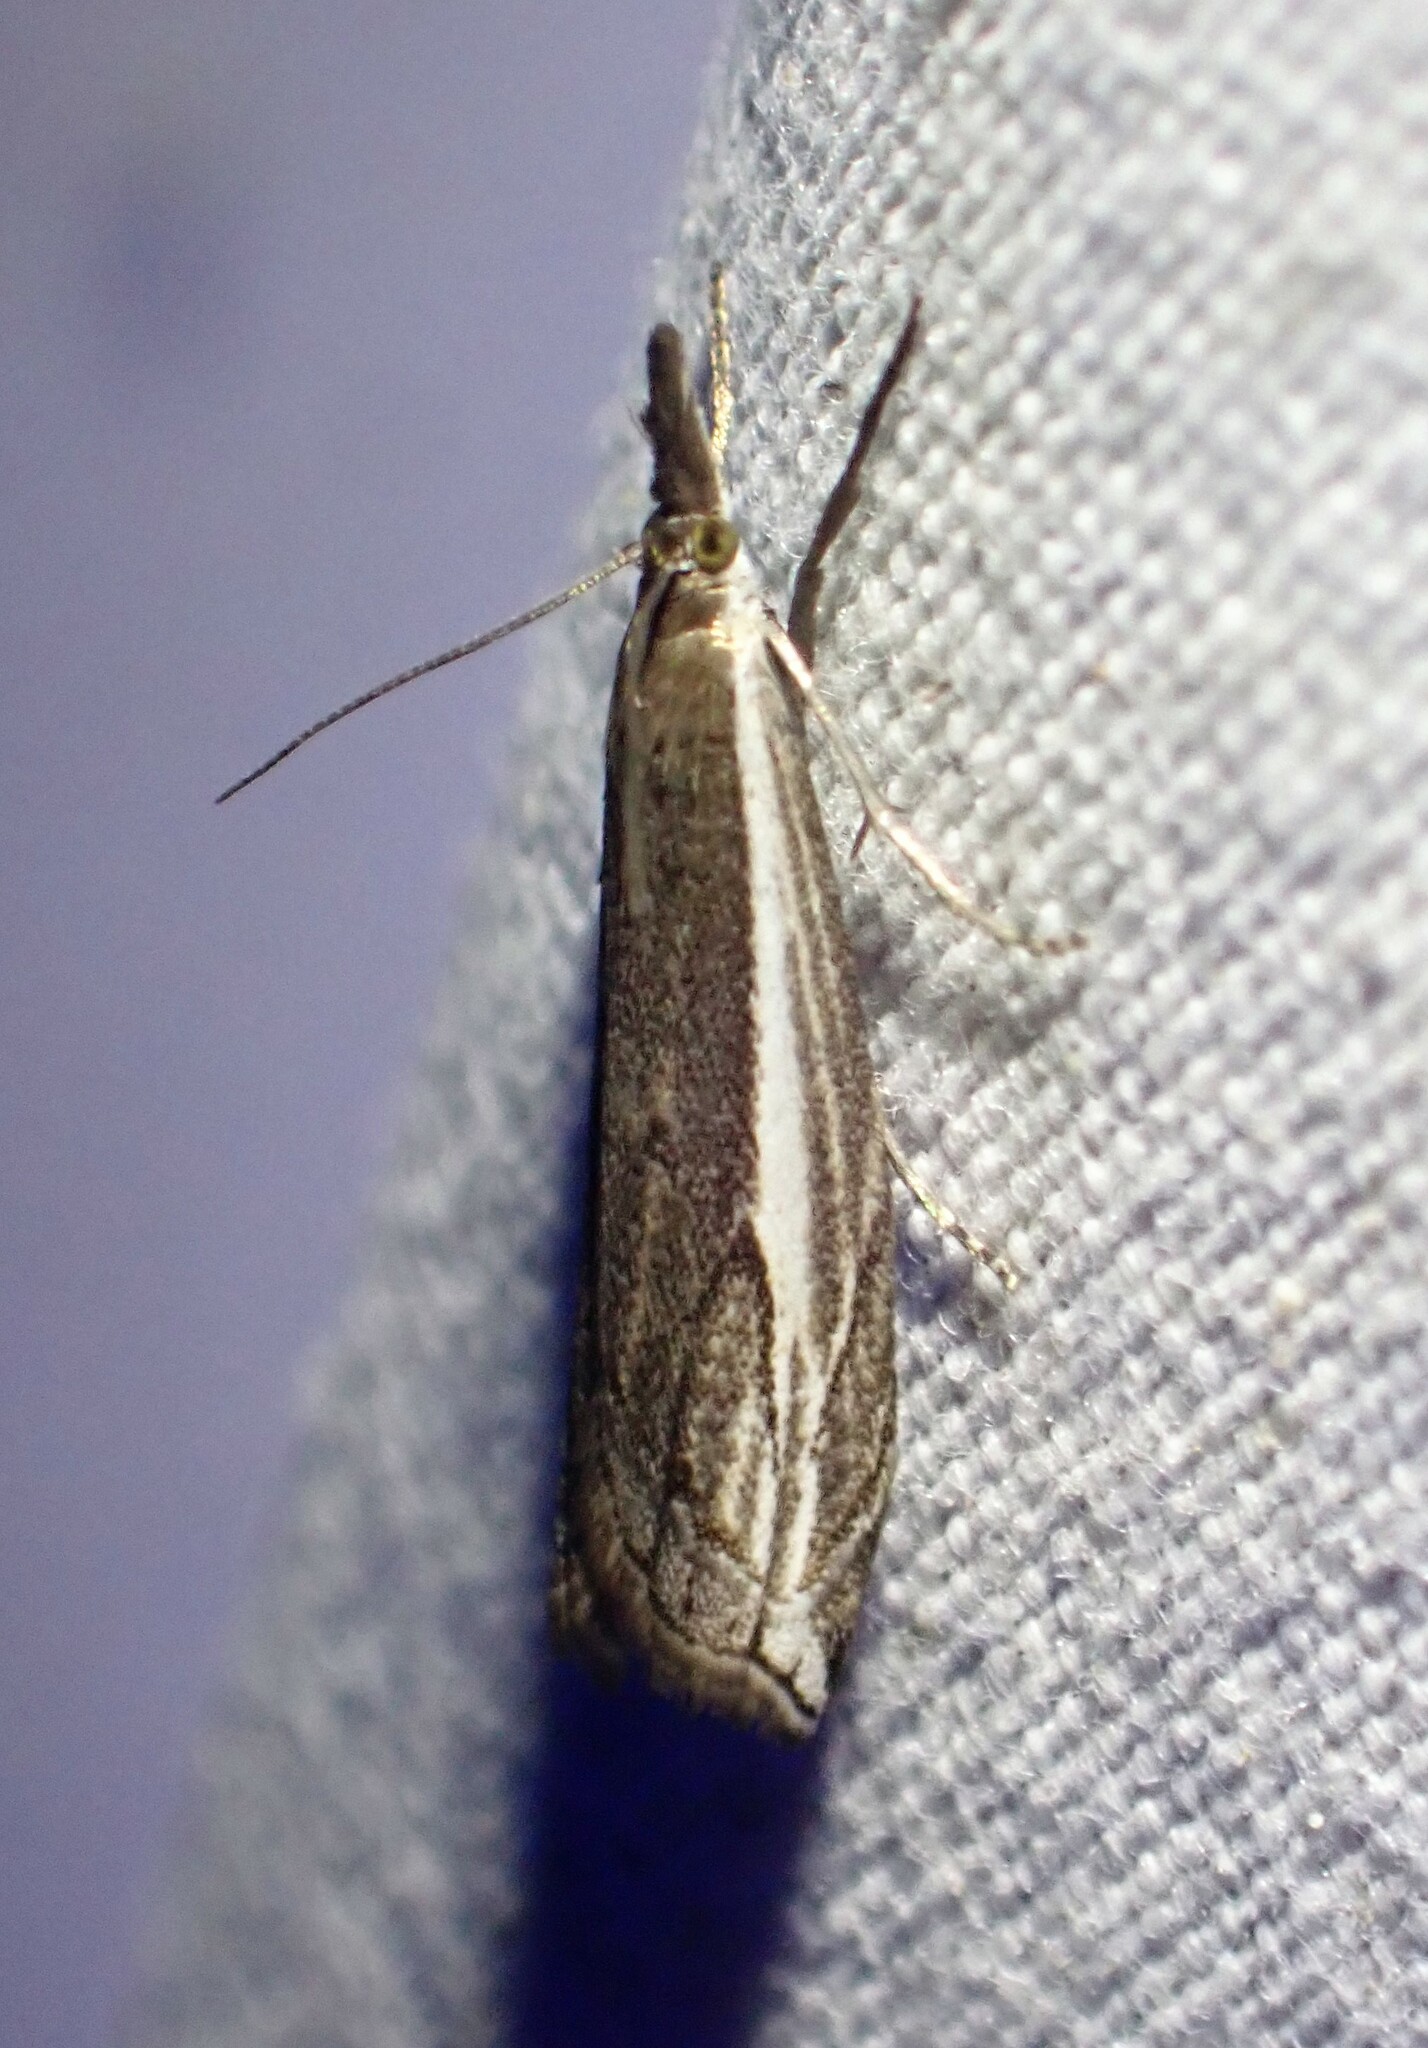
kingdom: Animalia
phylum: Arthropoda
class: Insecta
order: Lepidoptera
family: Crambidae
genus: Raphiptera
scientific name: Raphiptera argillaceellus
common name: Diminutive grass-veneer
